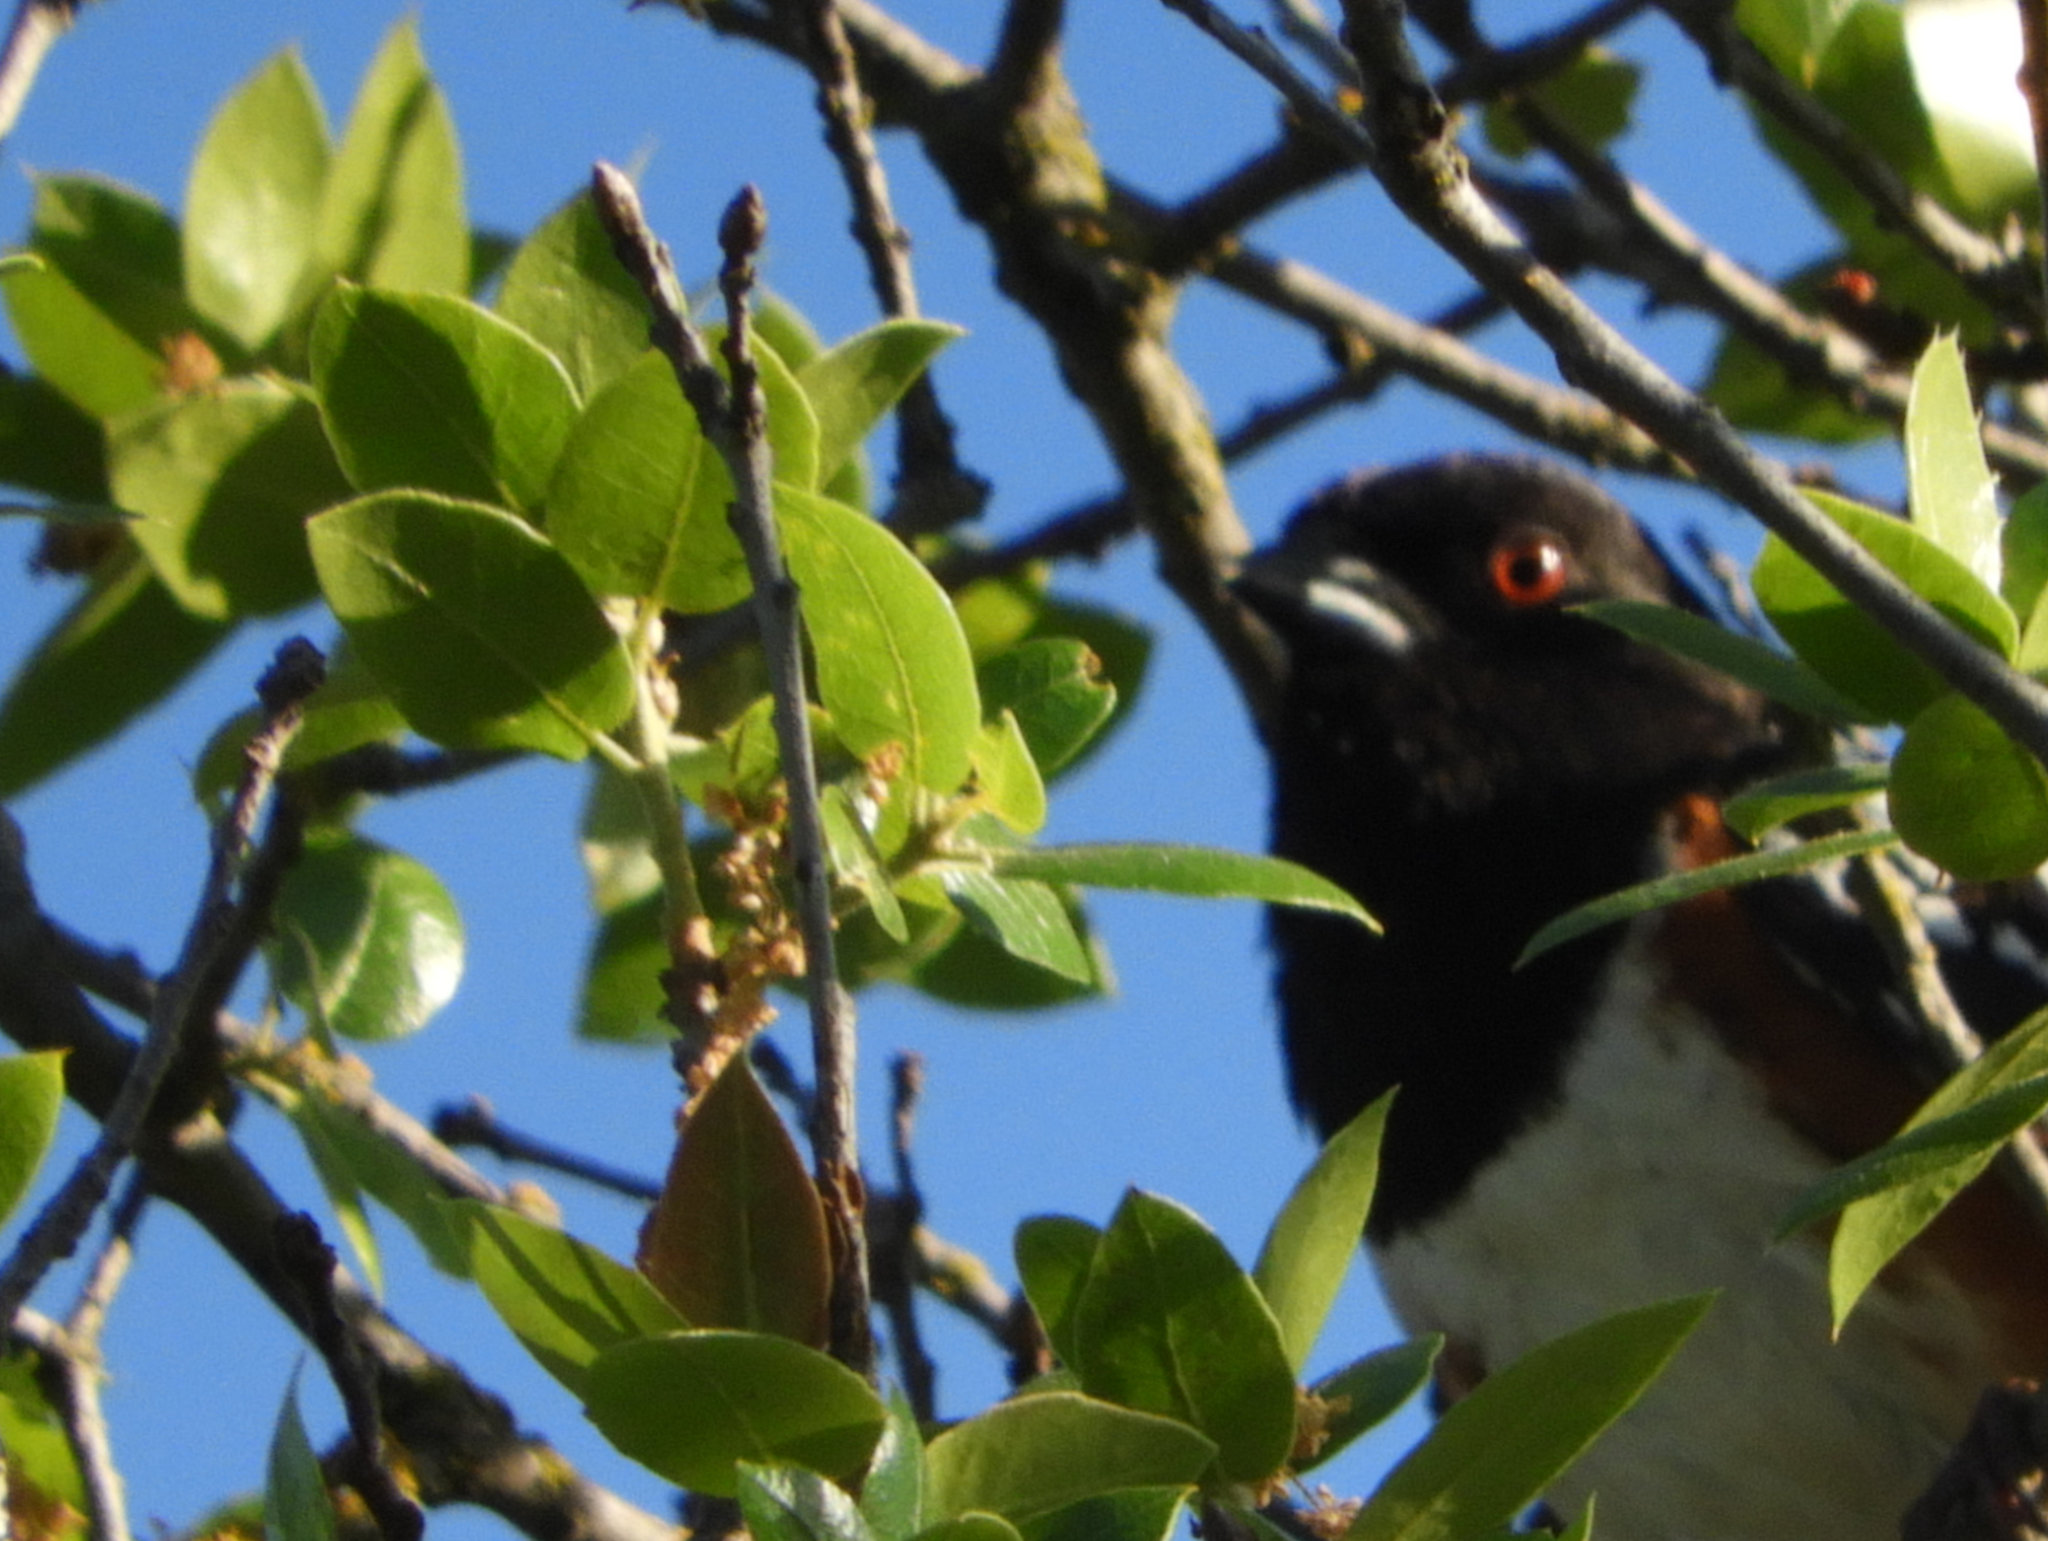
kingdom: Animalia
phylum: Chordata
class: Aves
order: Passeriformes
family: Passerellidae
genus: Pipilo
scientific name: Pipilo maculatus
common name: Spotted towhee
